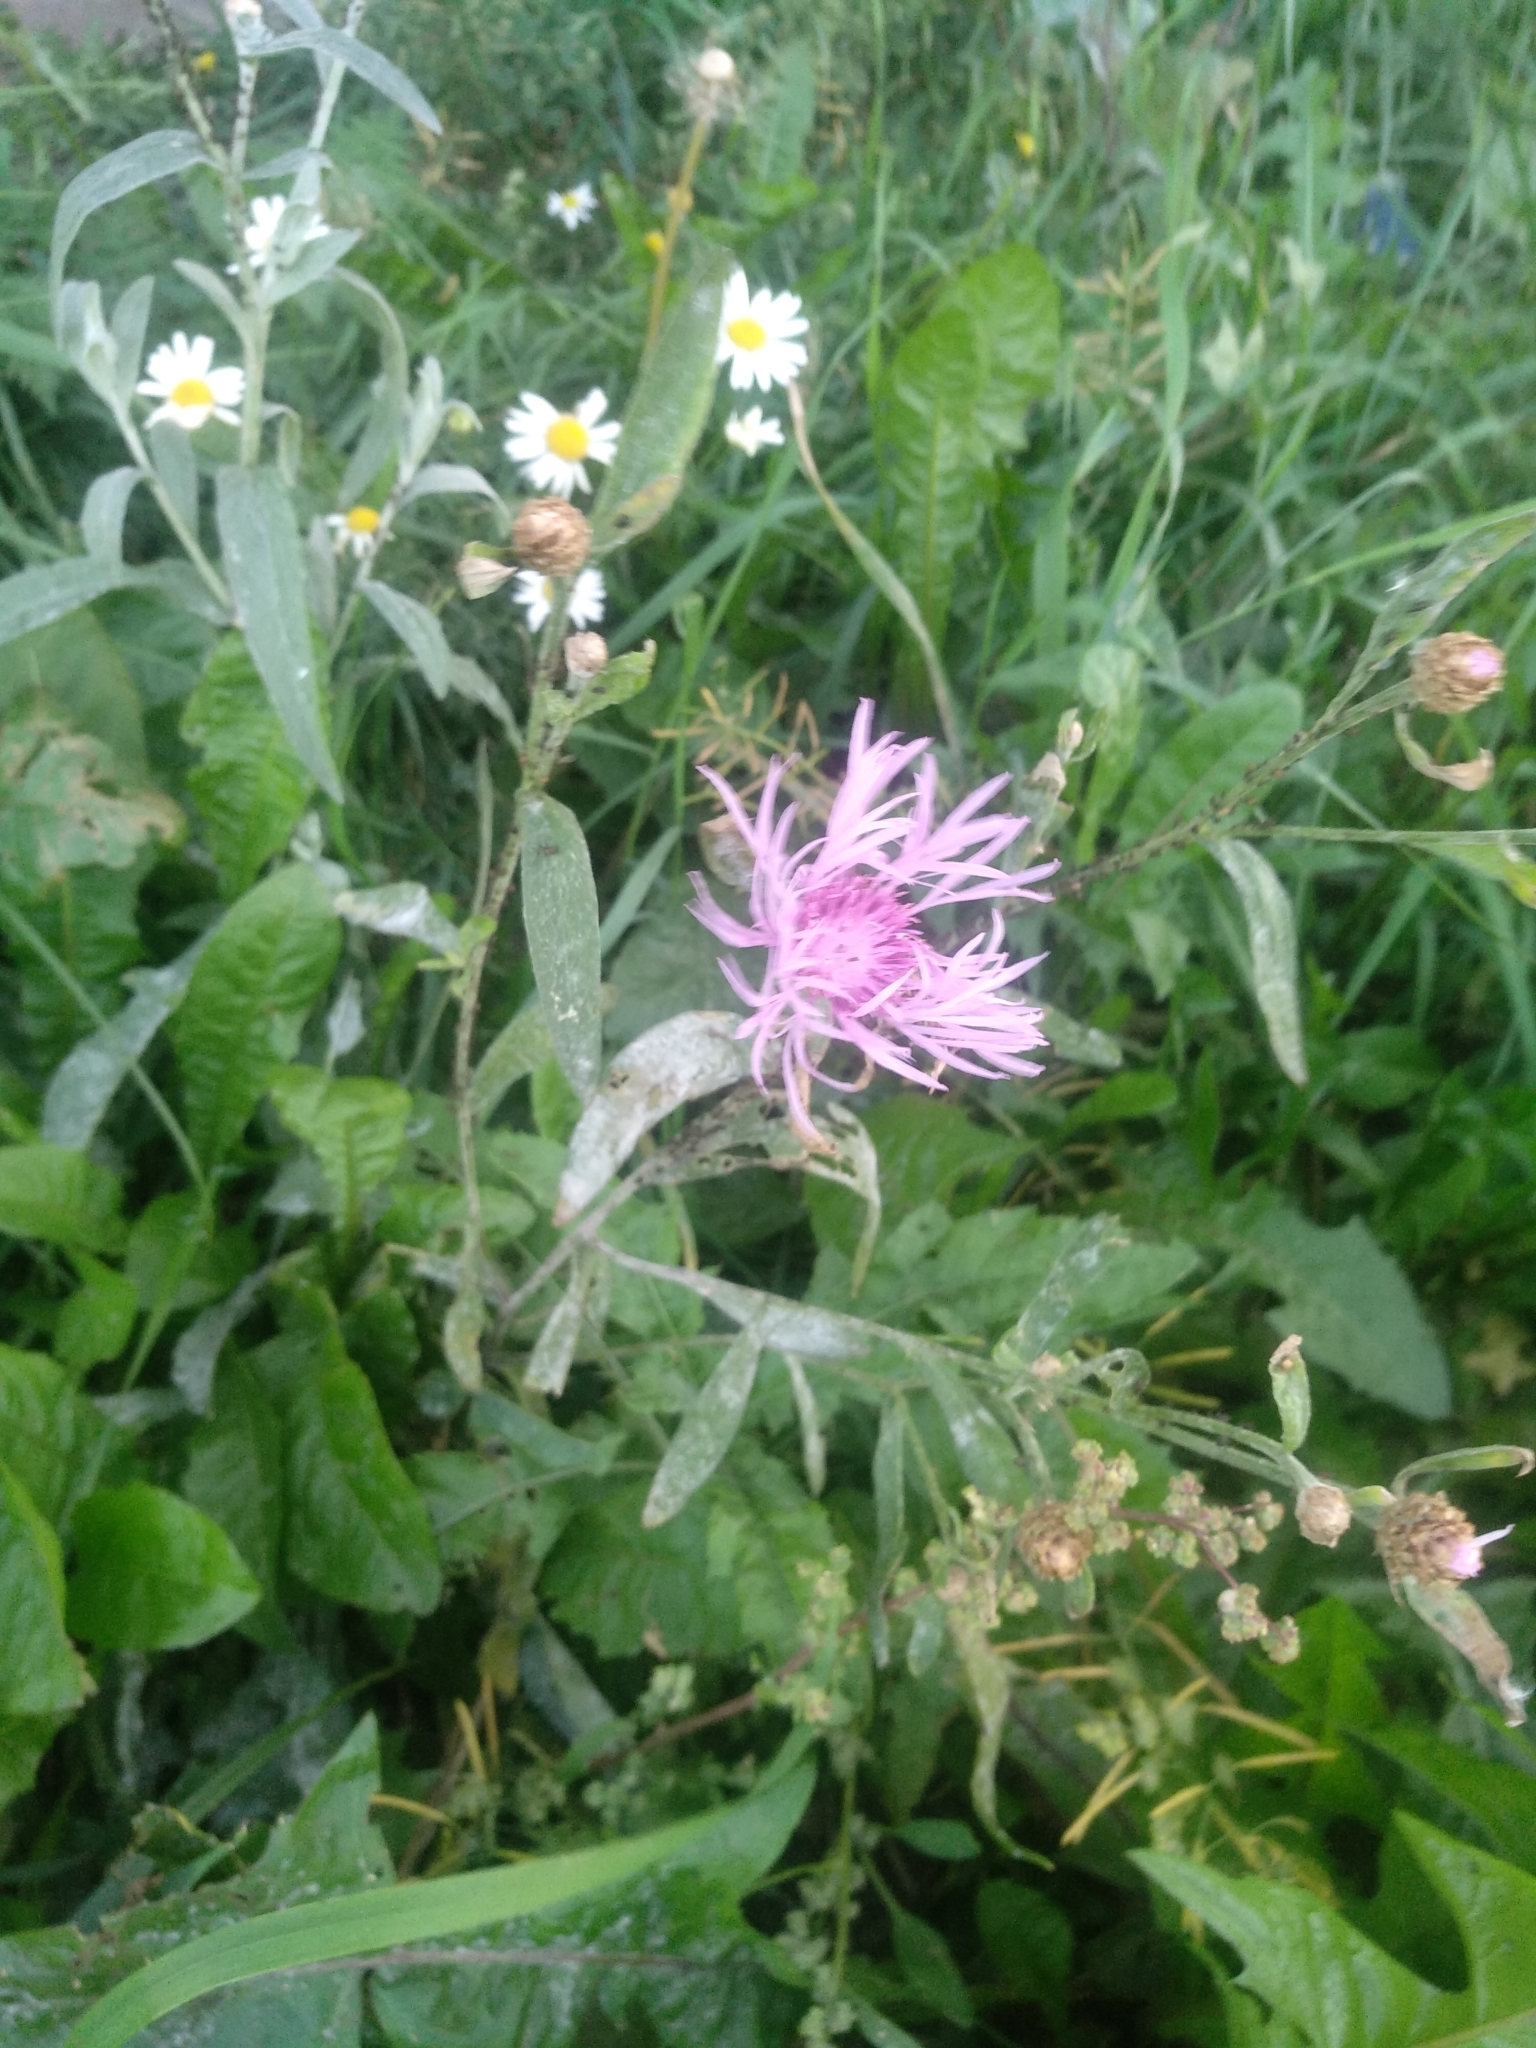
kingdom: Plantae
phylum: Tracheophyta
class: Magnoliopsida
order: Asterales
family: Asteraceae
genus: Centaurea
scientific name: Centaurea jacea
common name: Brown knapweed
